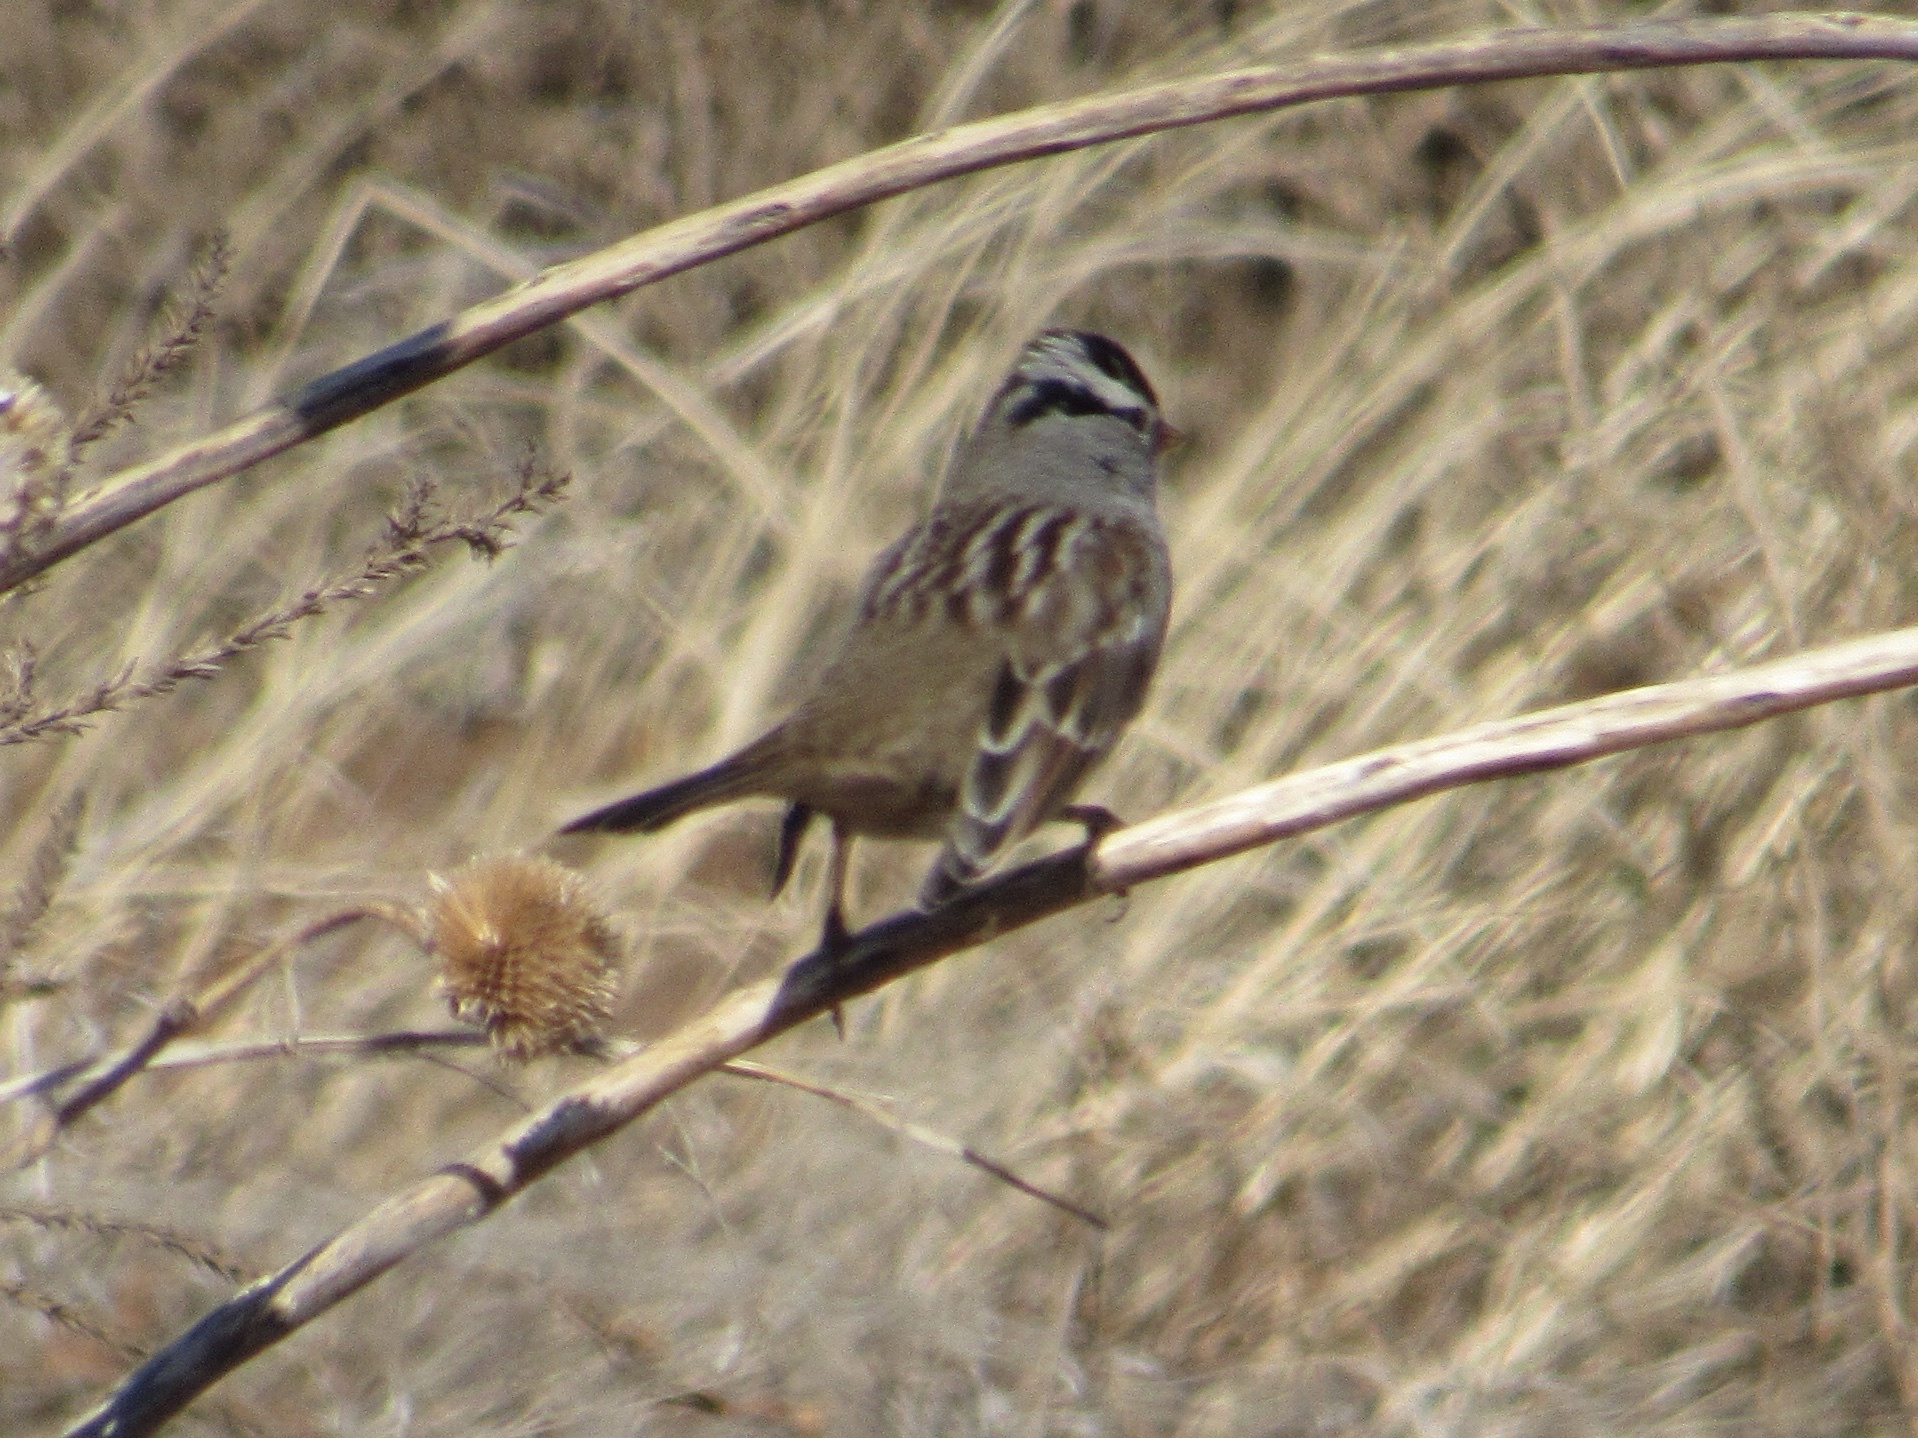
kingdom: Animalia
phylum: Chordata
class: Aves
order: Passeriformes
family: Passerellidae
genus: Zonotrichia
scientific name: Zonotrichia leucophrys
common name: White-crowned sparrow
